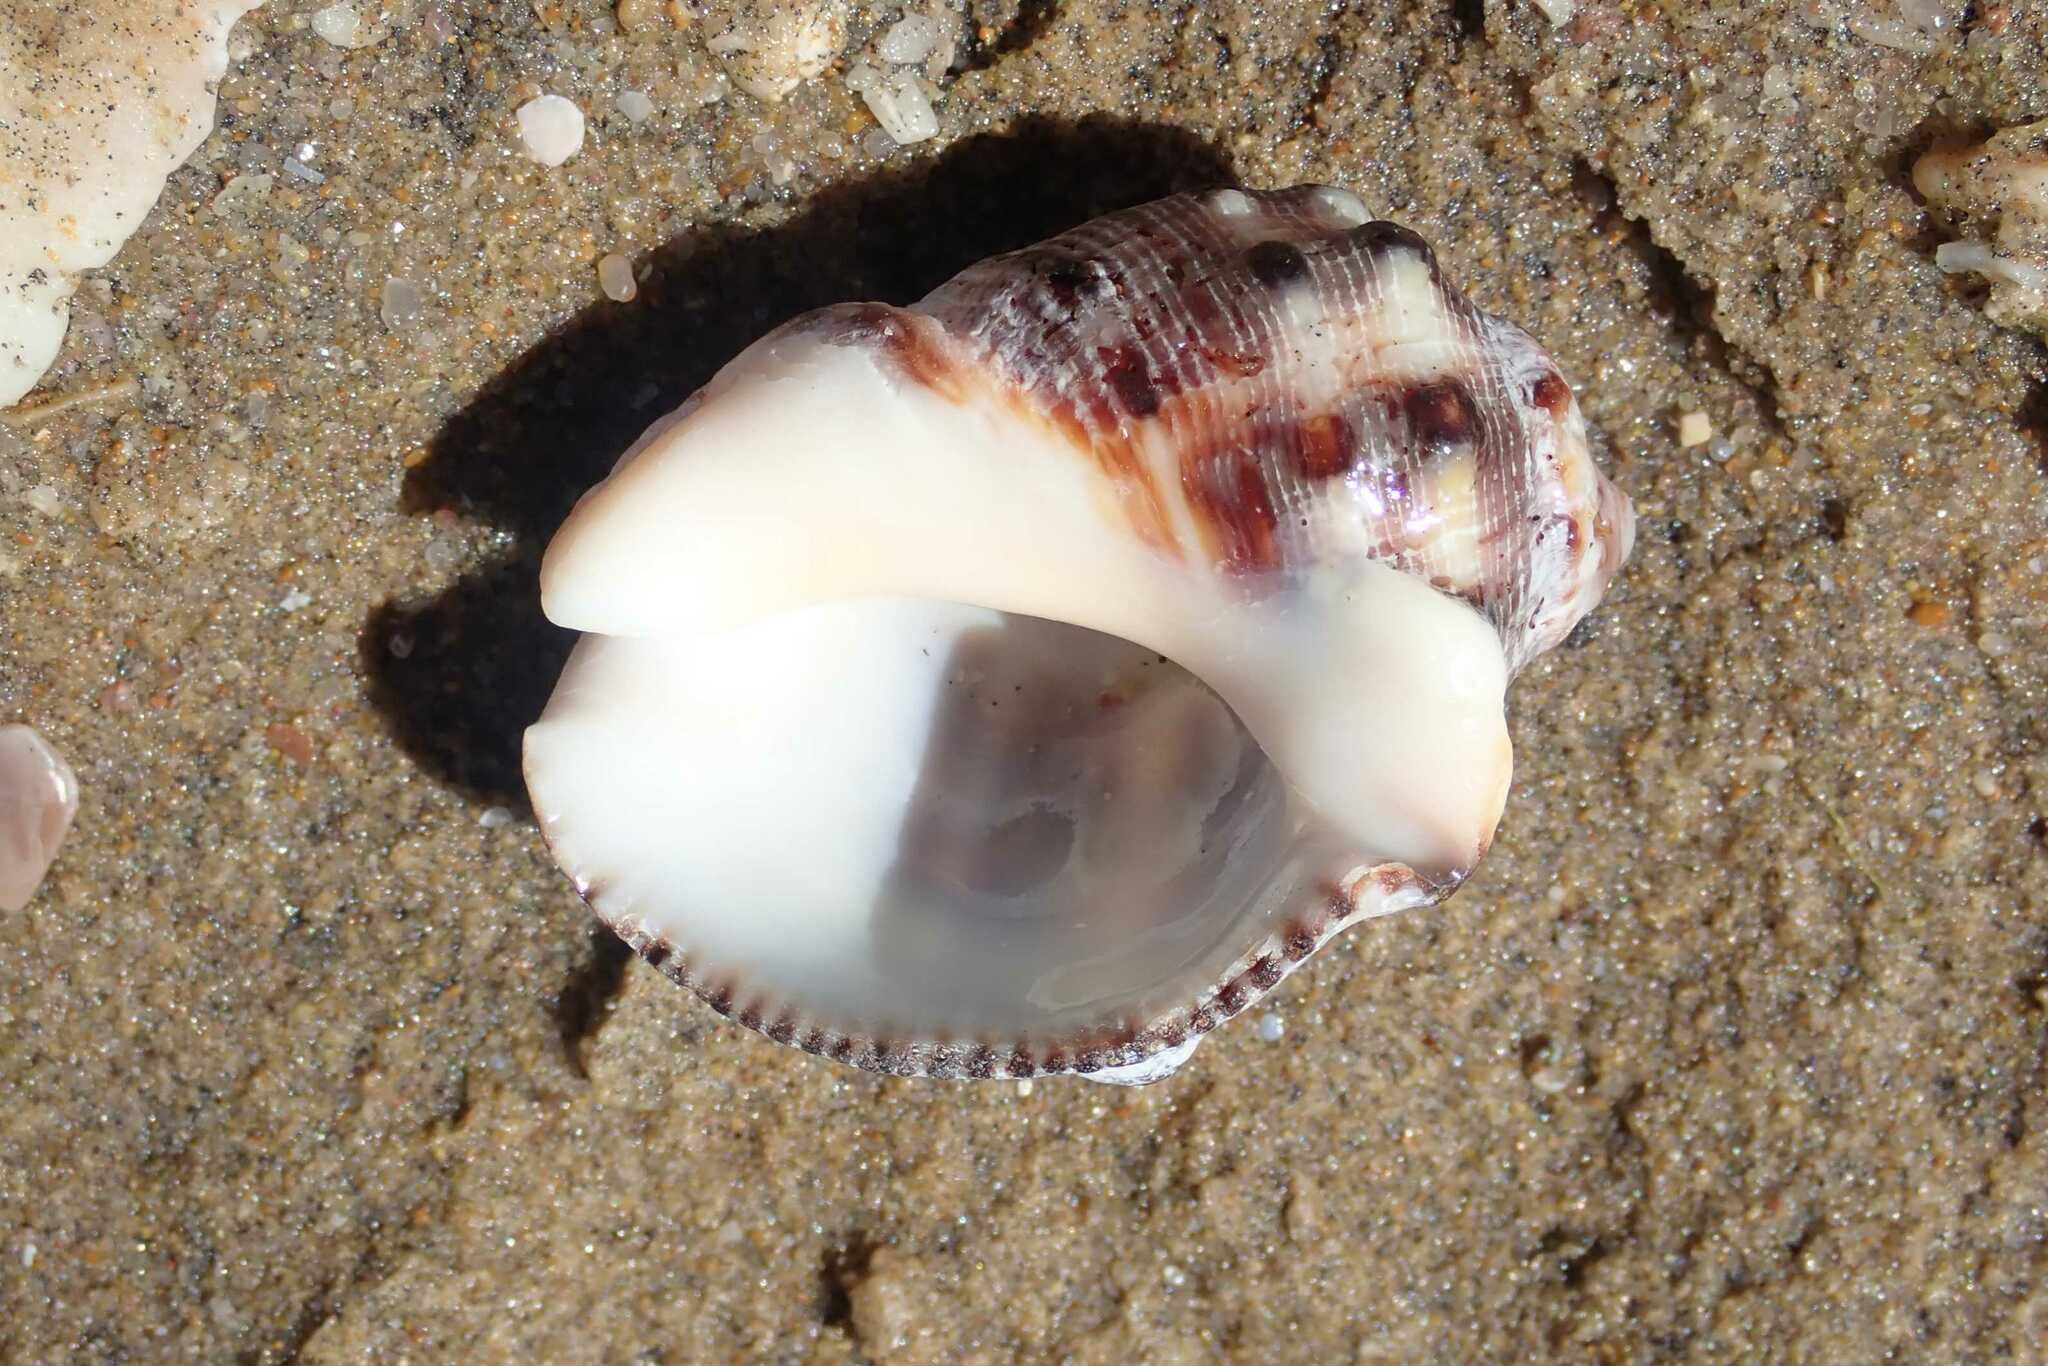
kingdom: Animalia
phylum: Mollusca
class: Gastropoda
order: Neogastropoda
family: Muricidae
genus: Purpura
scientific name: Purpura bufo
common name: Toad purple
